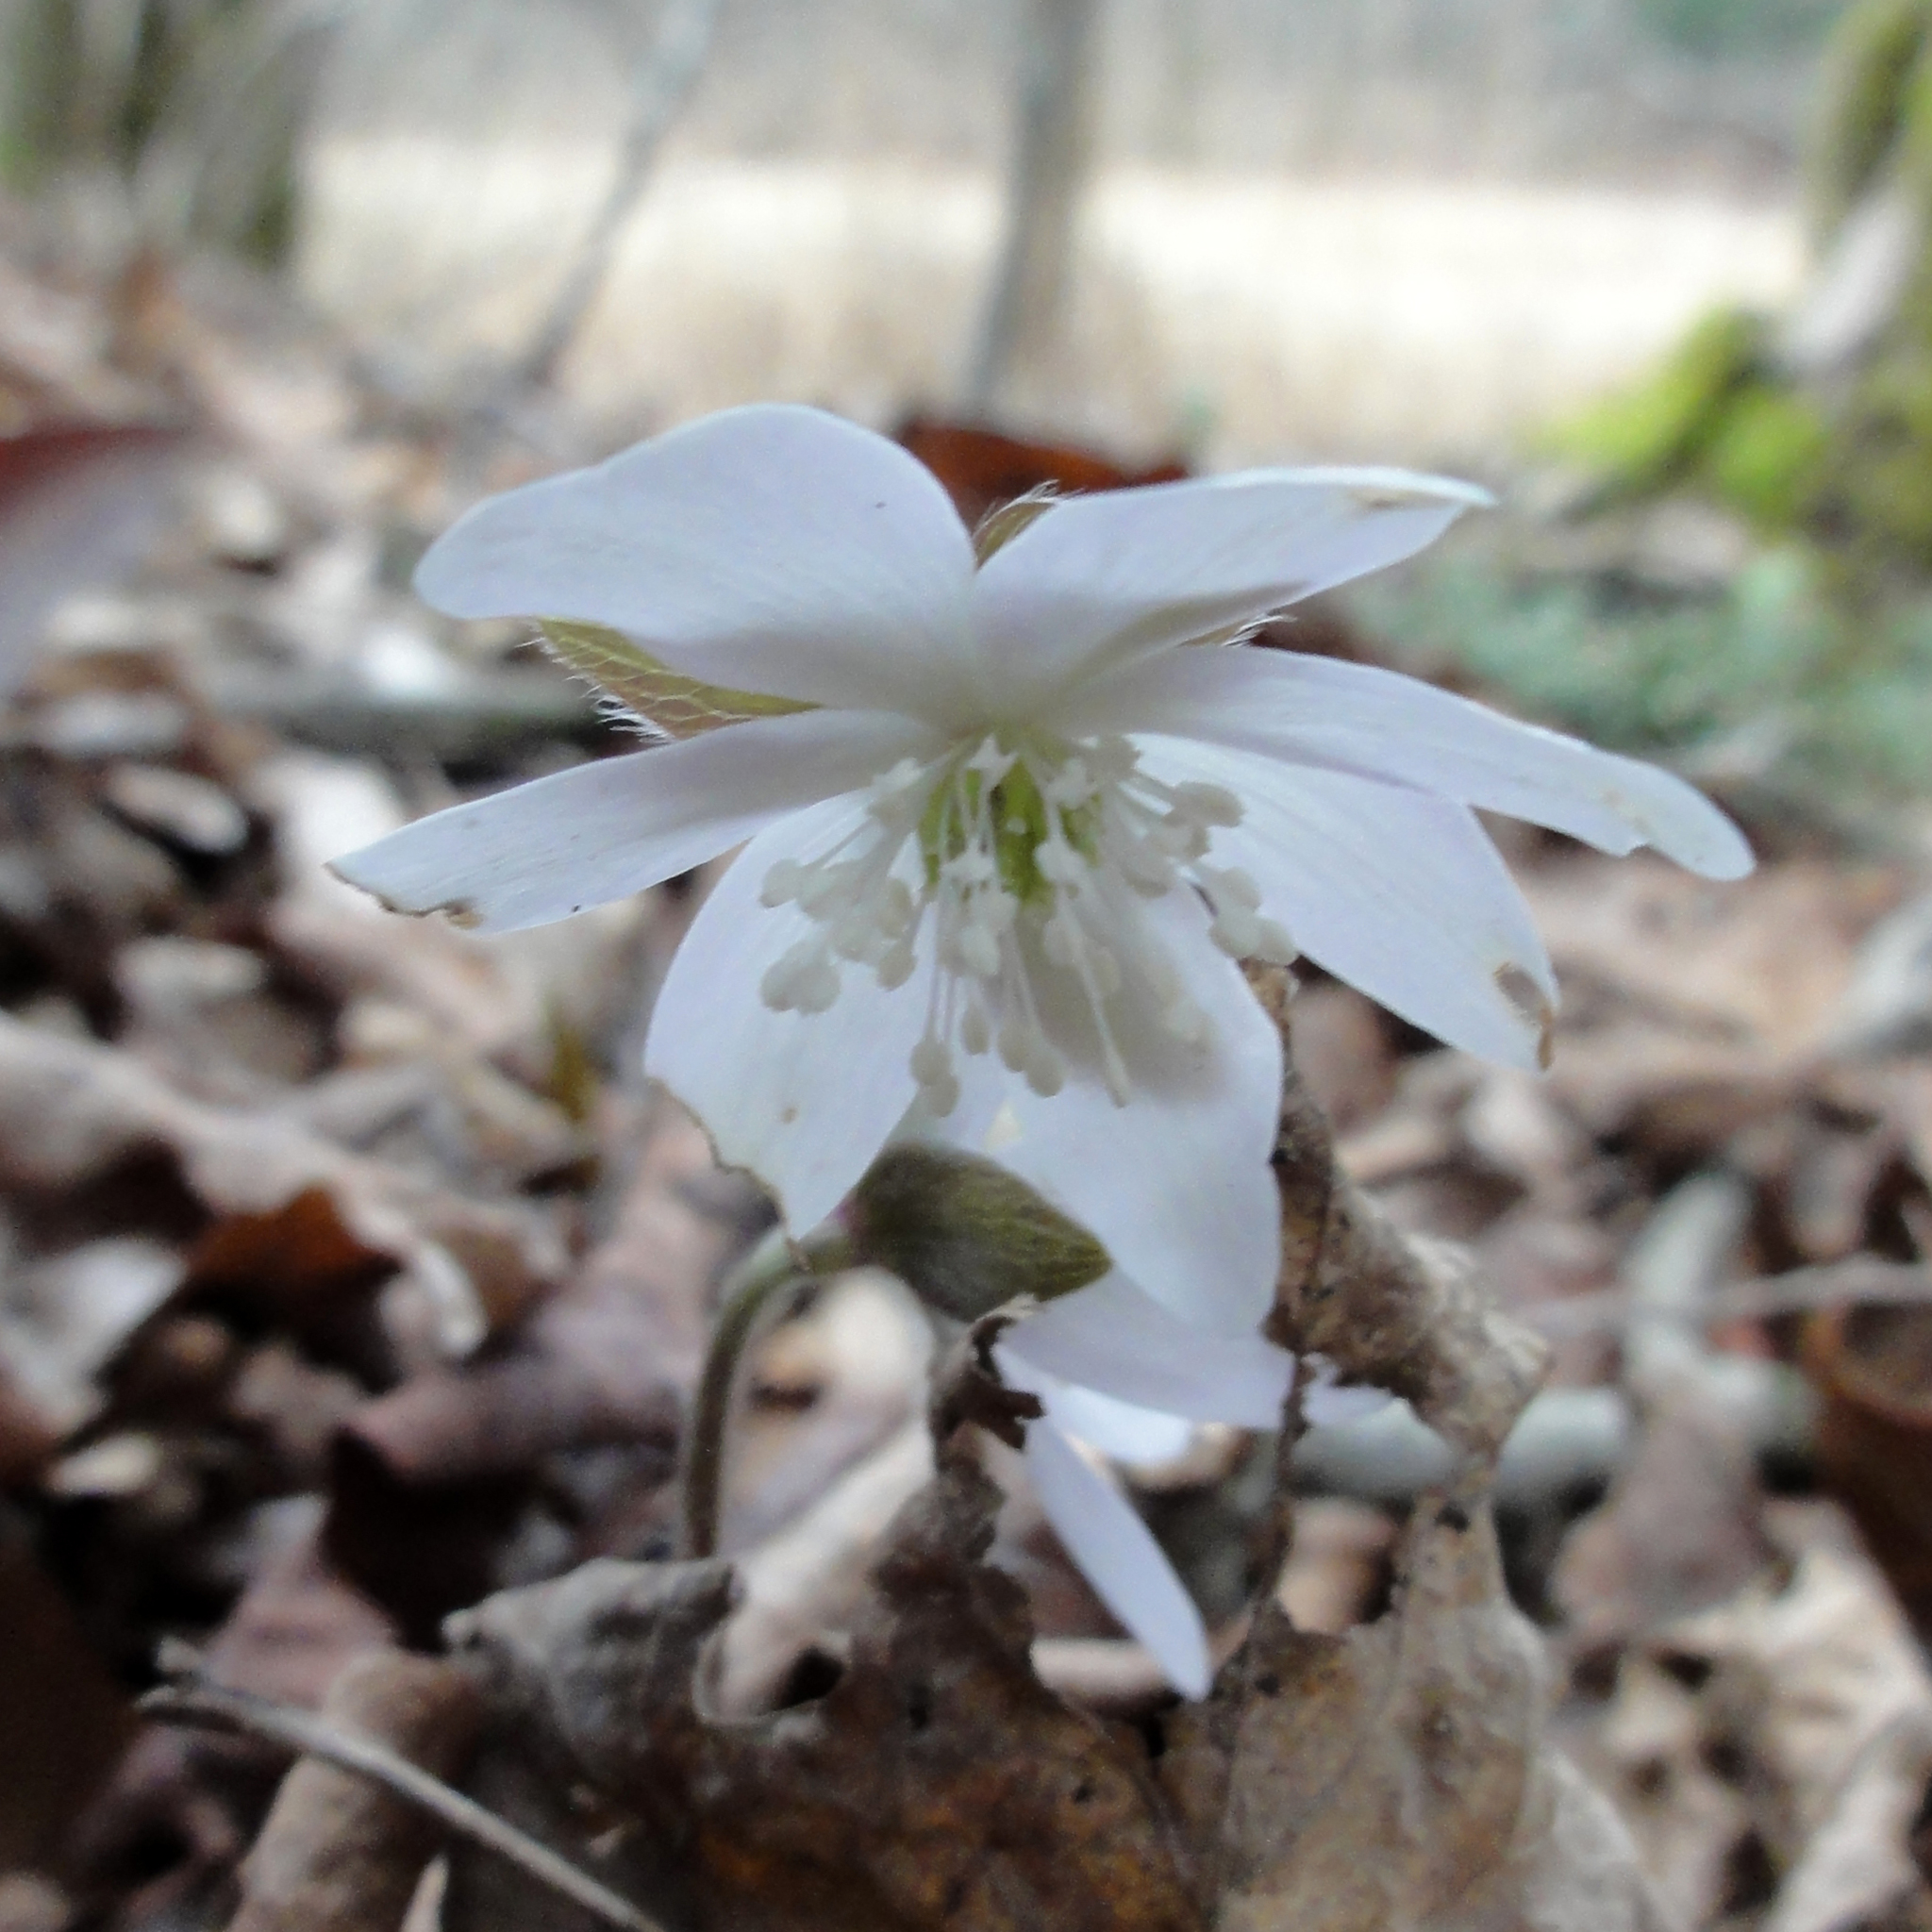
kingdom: Plantae
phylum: Tracheophyta
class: Magnoliopsida
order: Ranunculales
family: Ranunculaceae
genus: Hepatica
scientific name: Hepatica acutiloba
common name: Sharp-lobed hepatica
